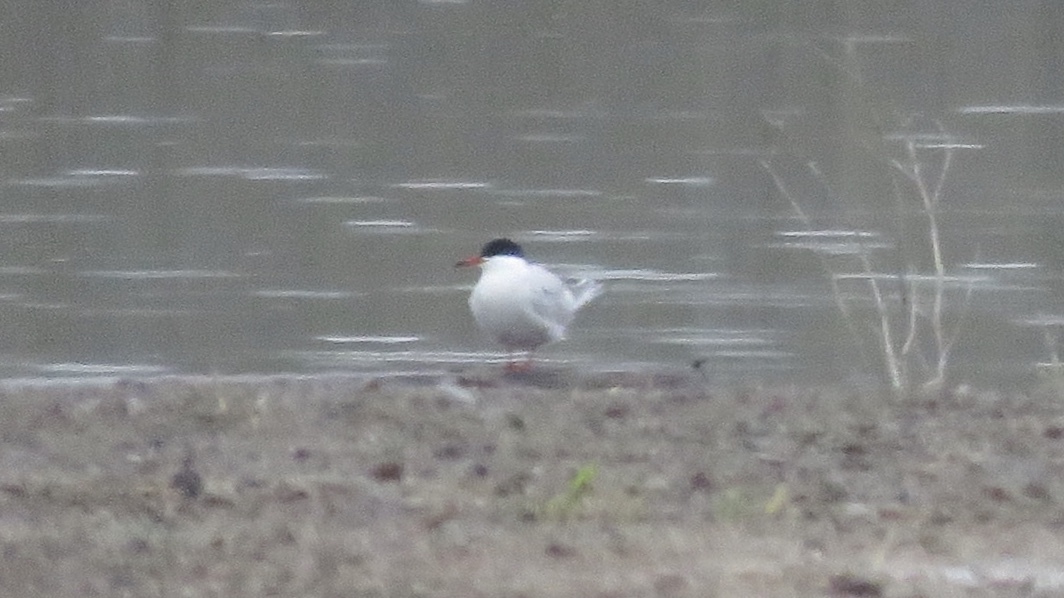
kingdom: Animalia
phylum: Chordata
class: Aves
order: Charadriiformes
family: Laridae
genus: Sterna
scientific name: Sterna hirundo
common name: Common tern
